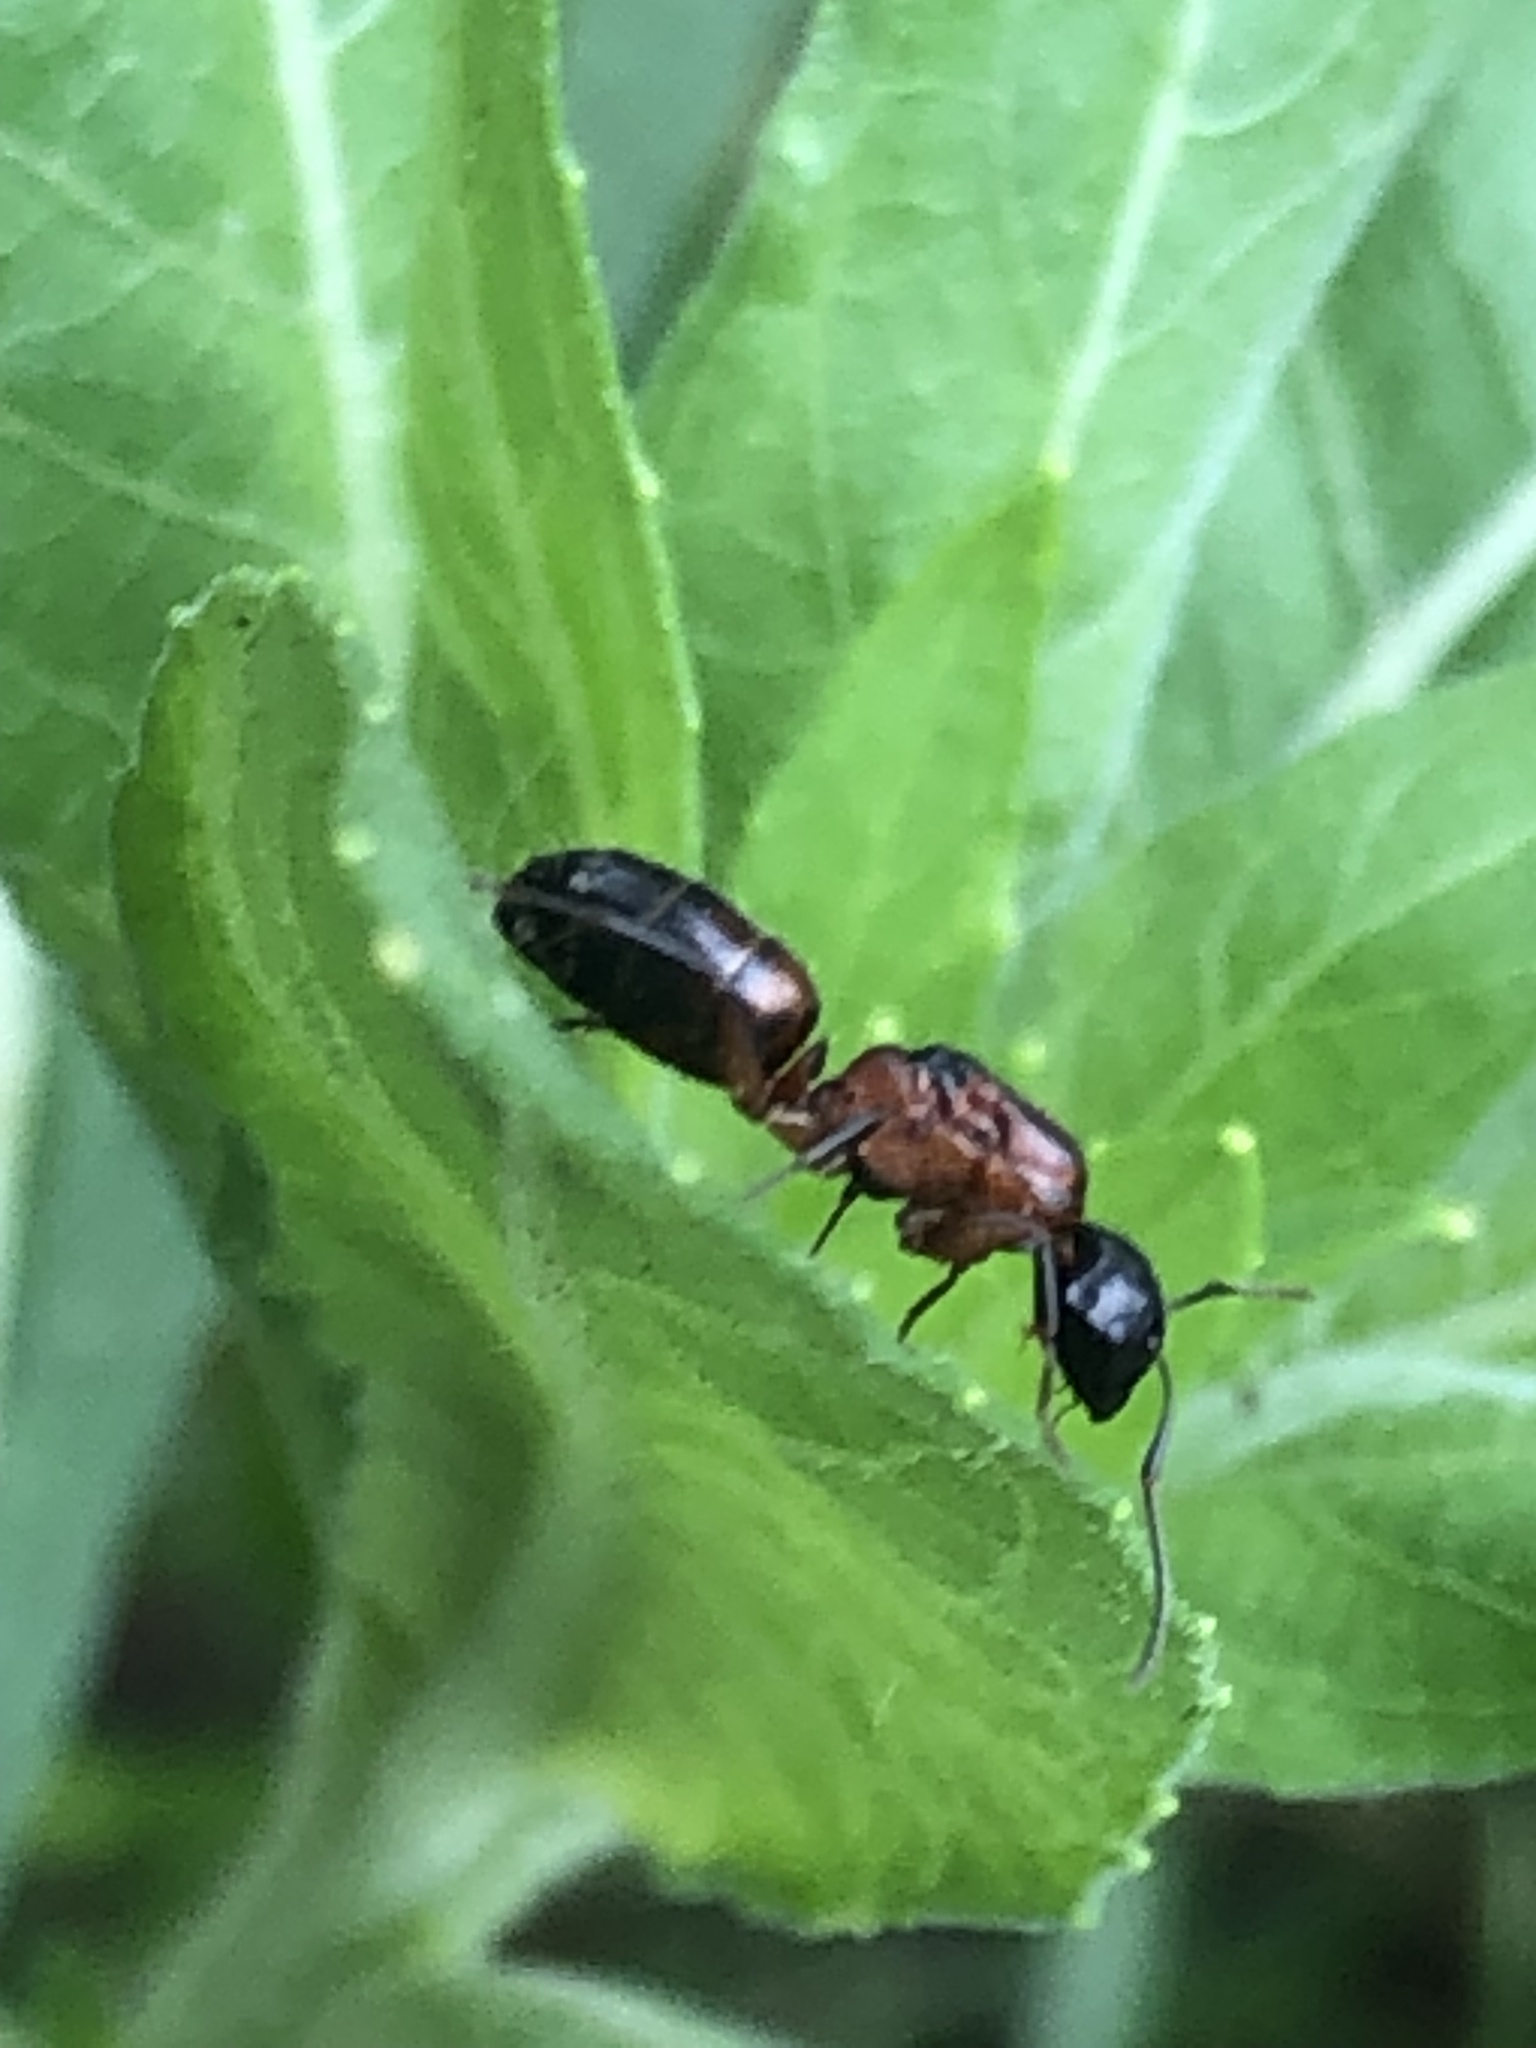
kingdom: Animalia
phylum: Arthropoda
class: Insecta
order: Hymenoptera
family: Formicidae
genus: Camponotus
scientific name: Camponotus nearcticus
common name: Smaller carpenter ant
